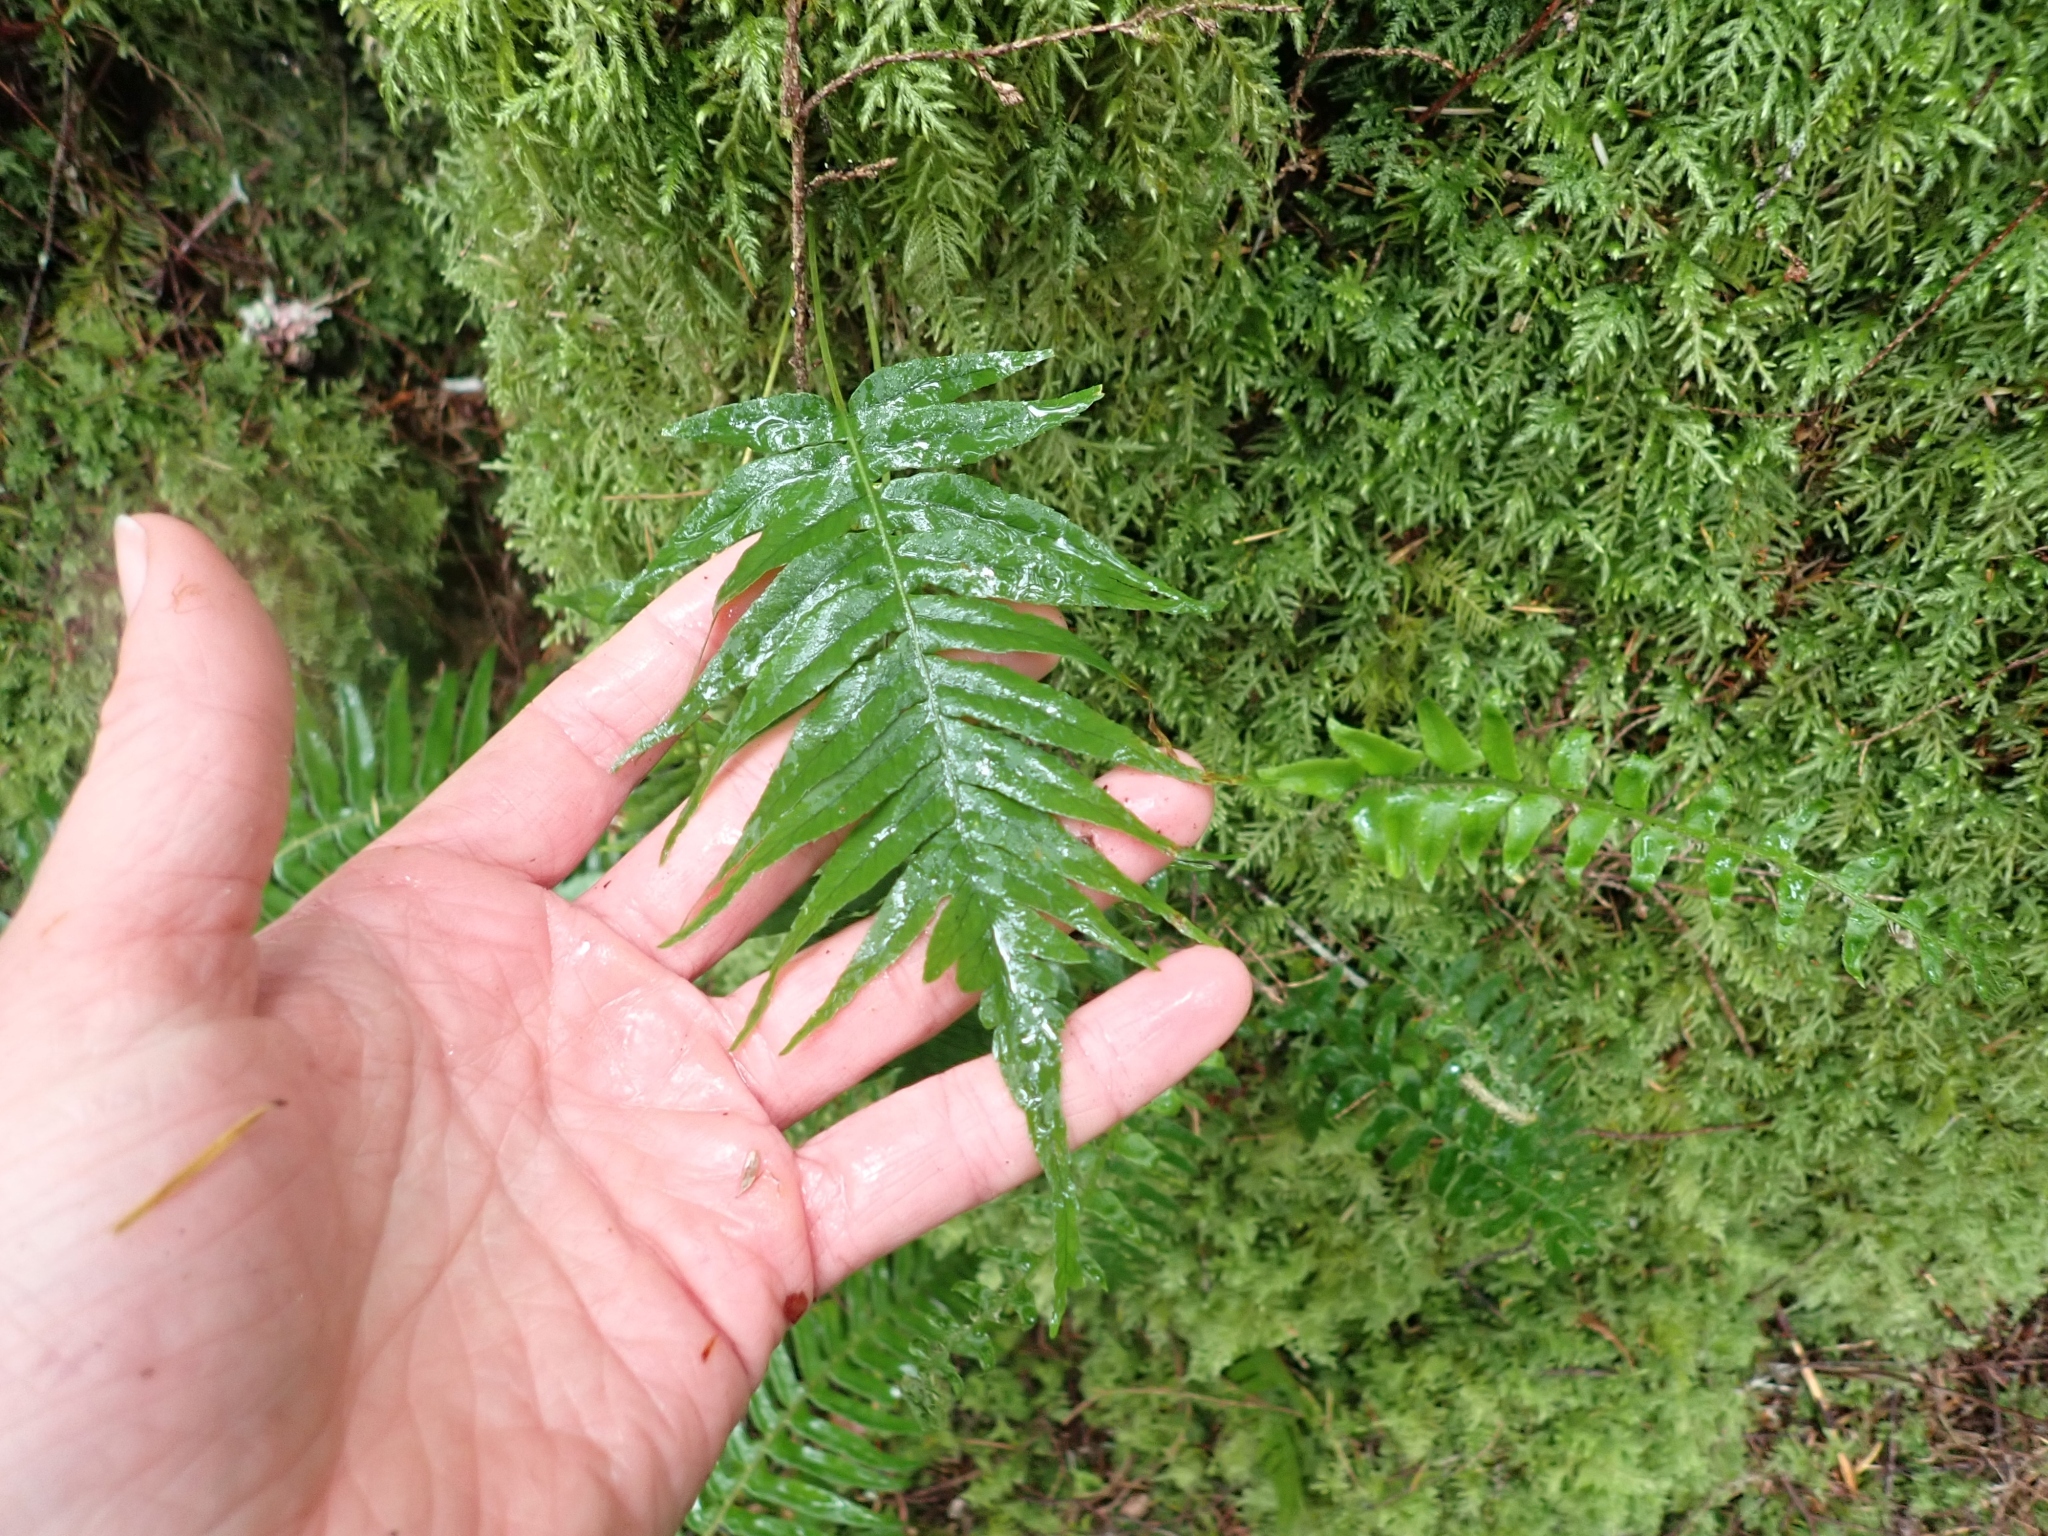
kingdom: Plantae
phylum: Tracheophyta
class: Polypodiopsida
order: Polypodiales
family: Polypodiaceae
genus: Polypodium
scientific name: Polypodium glycyrrhiza
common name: Licorice fern
